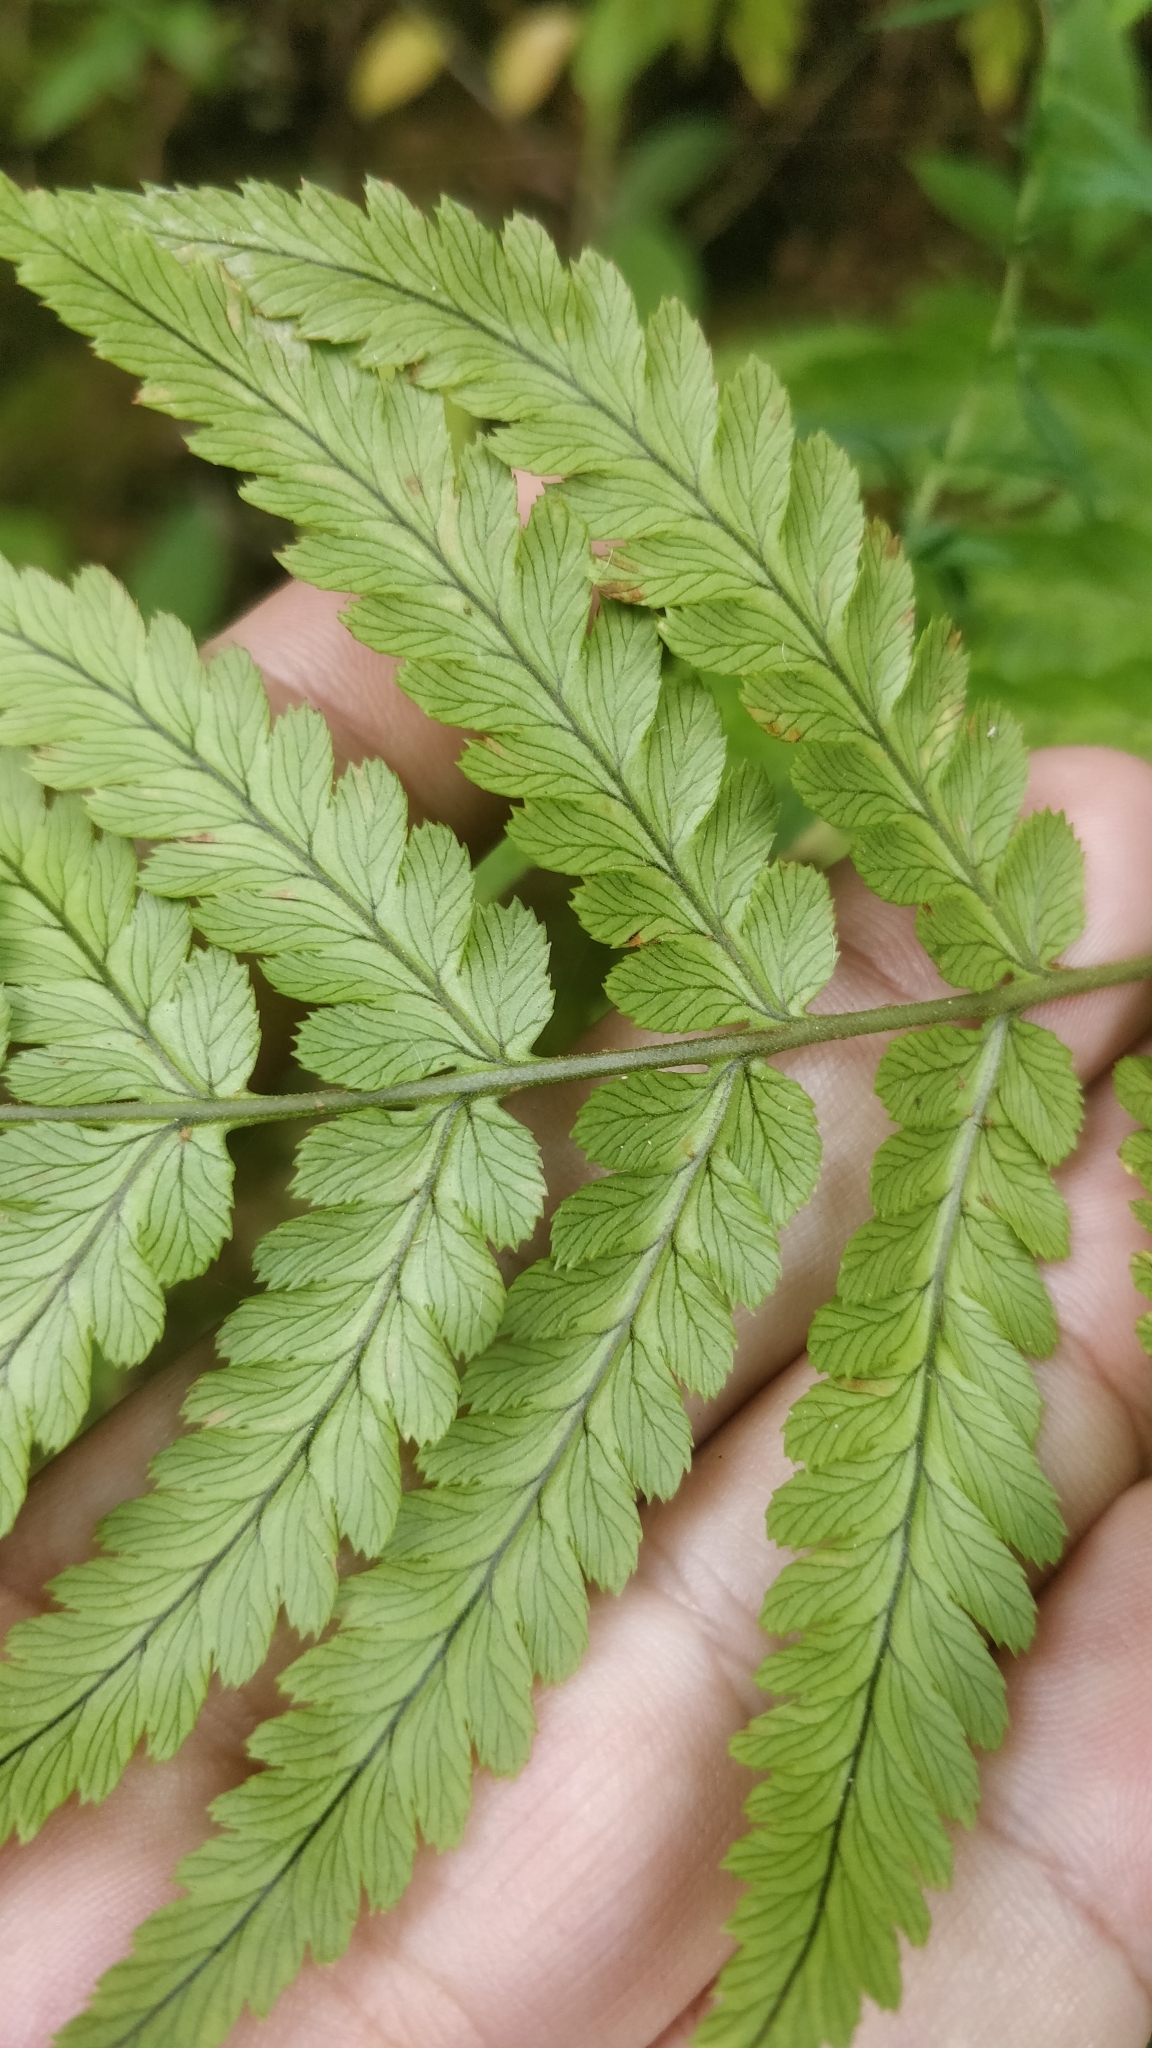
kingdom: Plantae
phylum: Tracheophyta
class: Polypodiopsida
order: Polypodiales
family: Dryopteridaceae
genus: Dryopteris
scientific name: Dryopteris aitoniana
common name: Aiton's buckler-fern
